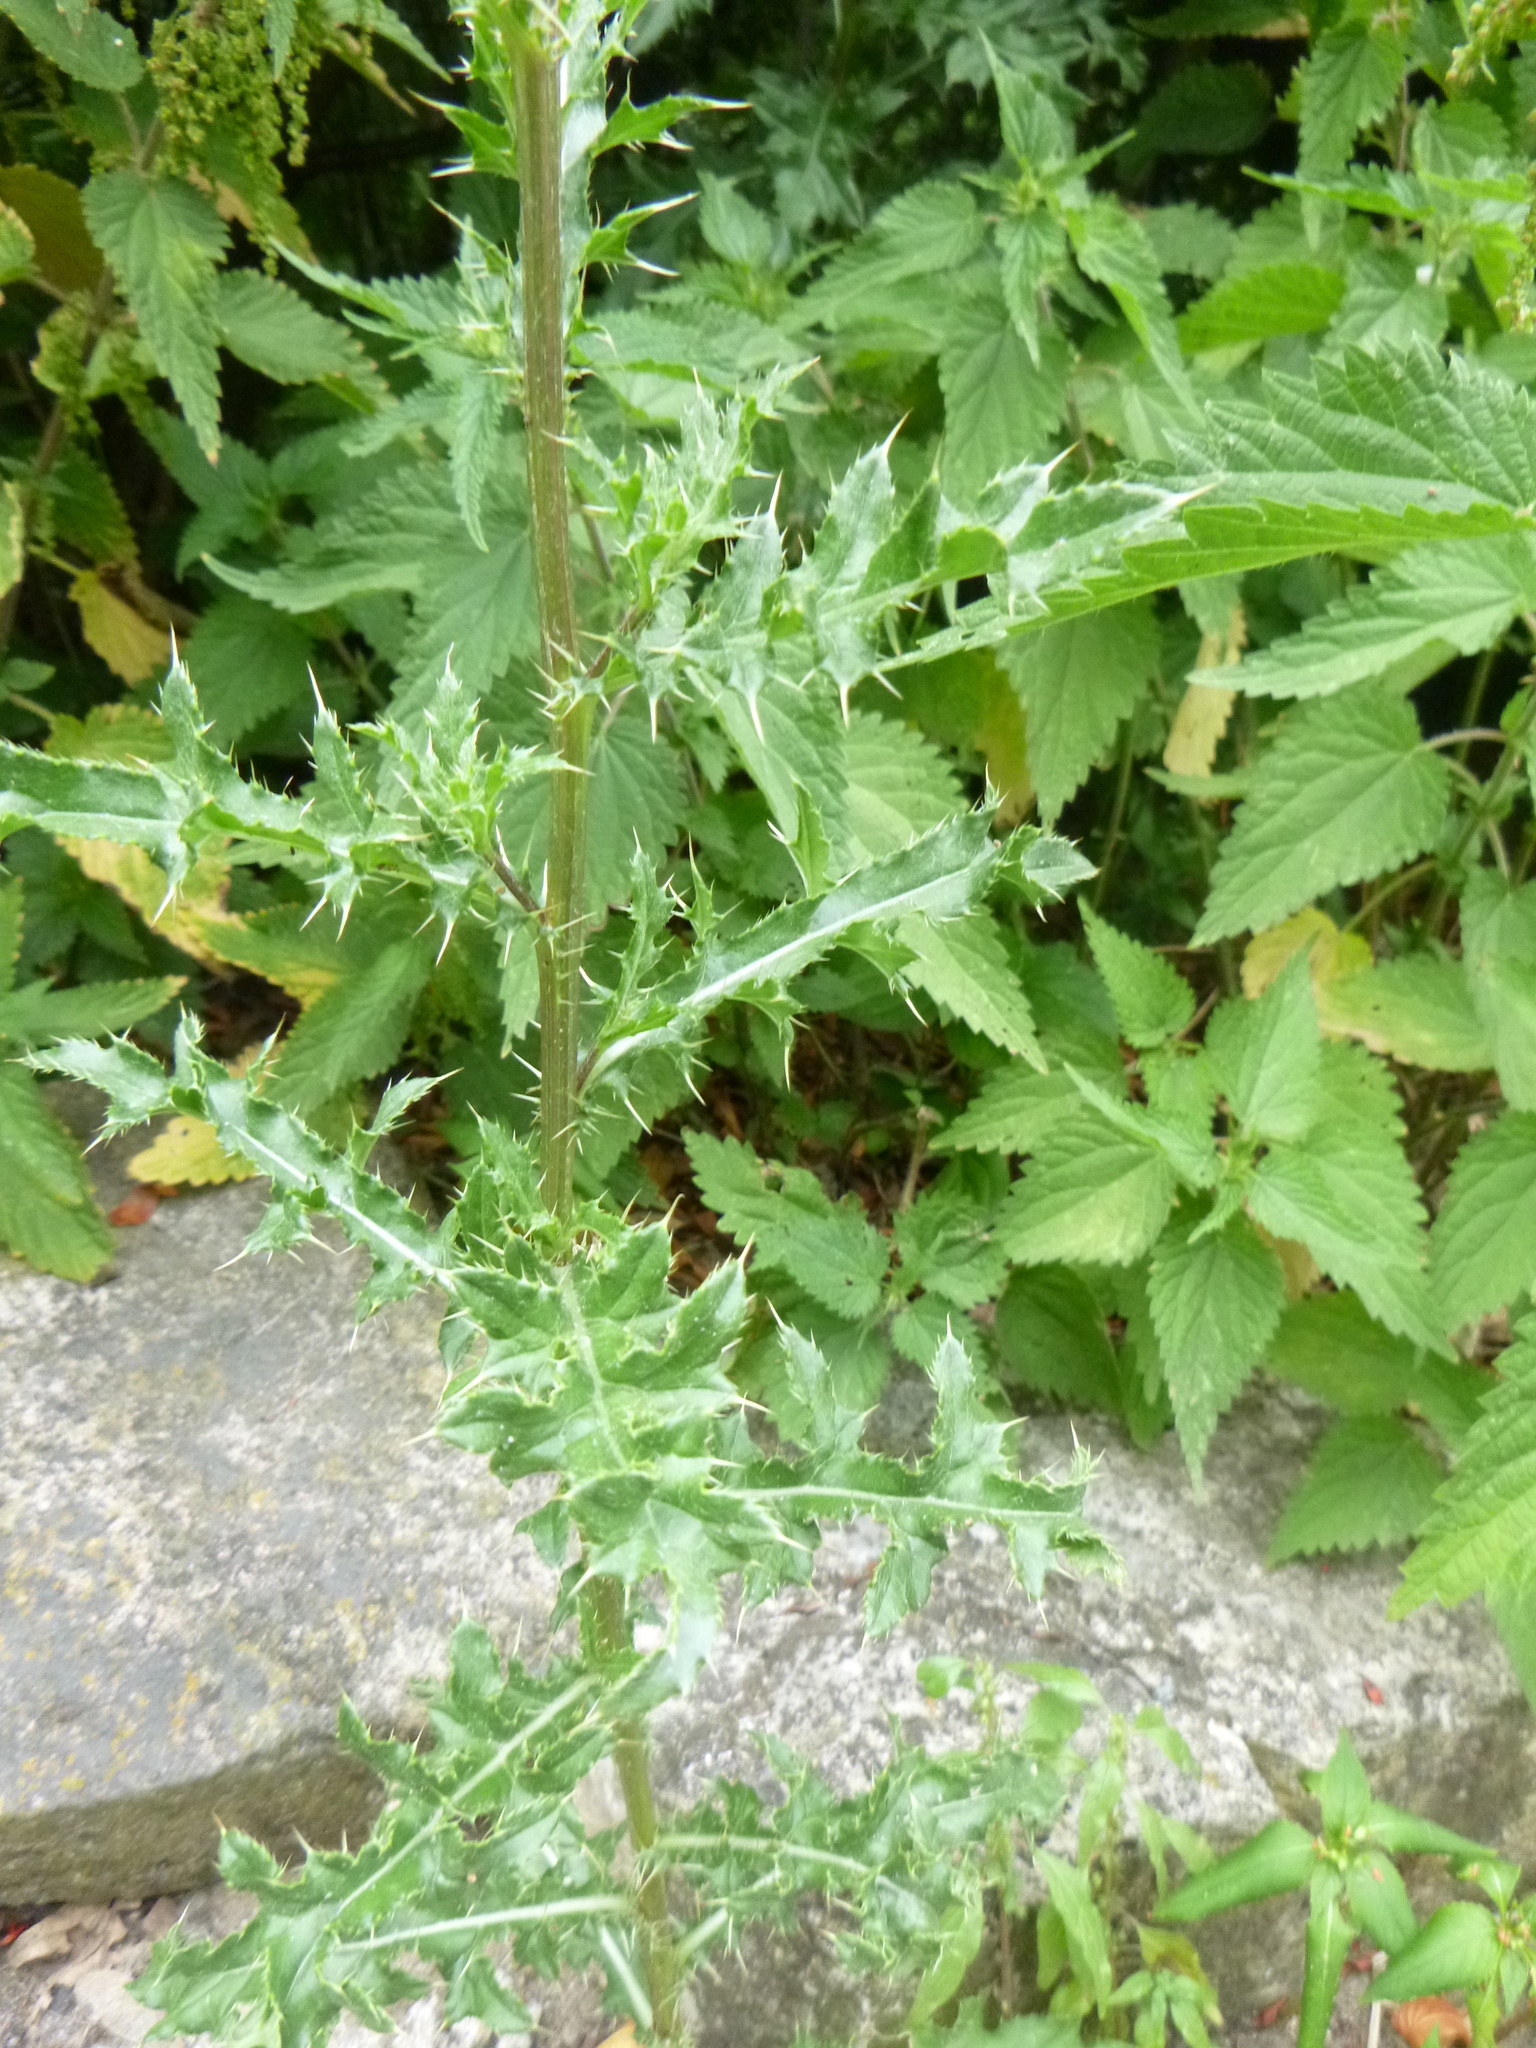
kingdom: Plantae
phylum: Tracheophyta
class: Magnoliopsida
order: Asterales
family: Asteraceae
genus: Cirsium
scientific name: Cirsium arvense
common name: Creeping thistle
